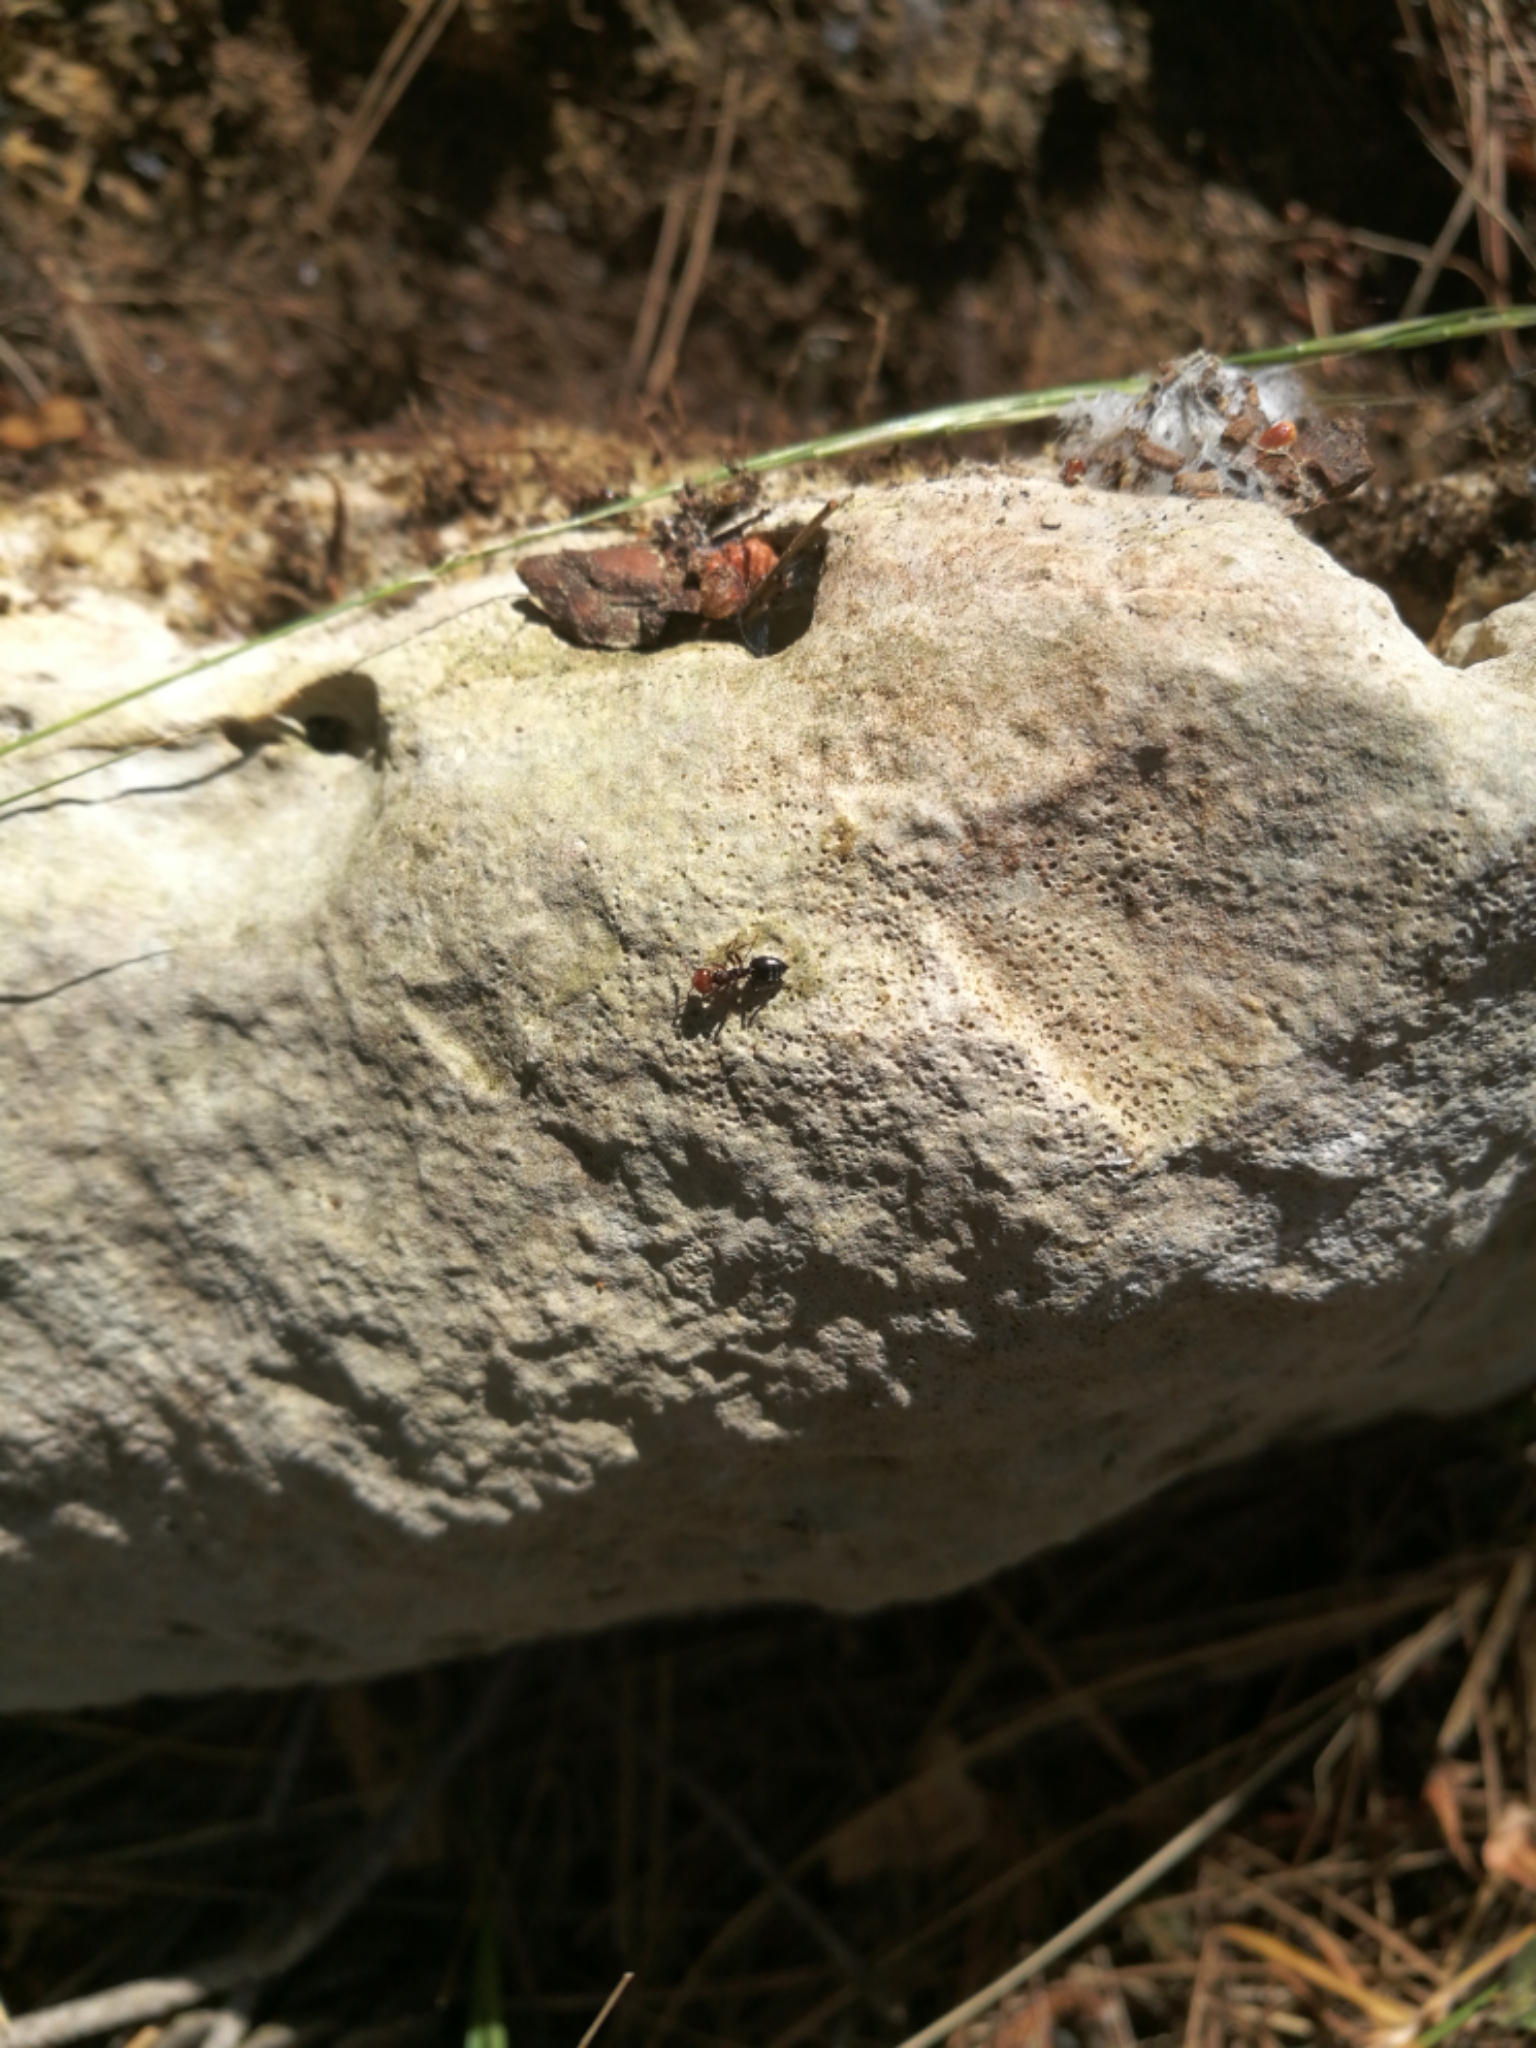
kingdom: Animalia
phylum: Arthropoda
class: Insecta
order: Hymenoptera
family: Formicidae
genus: Crematogaster
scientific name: Crematogaster scutellaris
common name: Fourmi du liège
